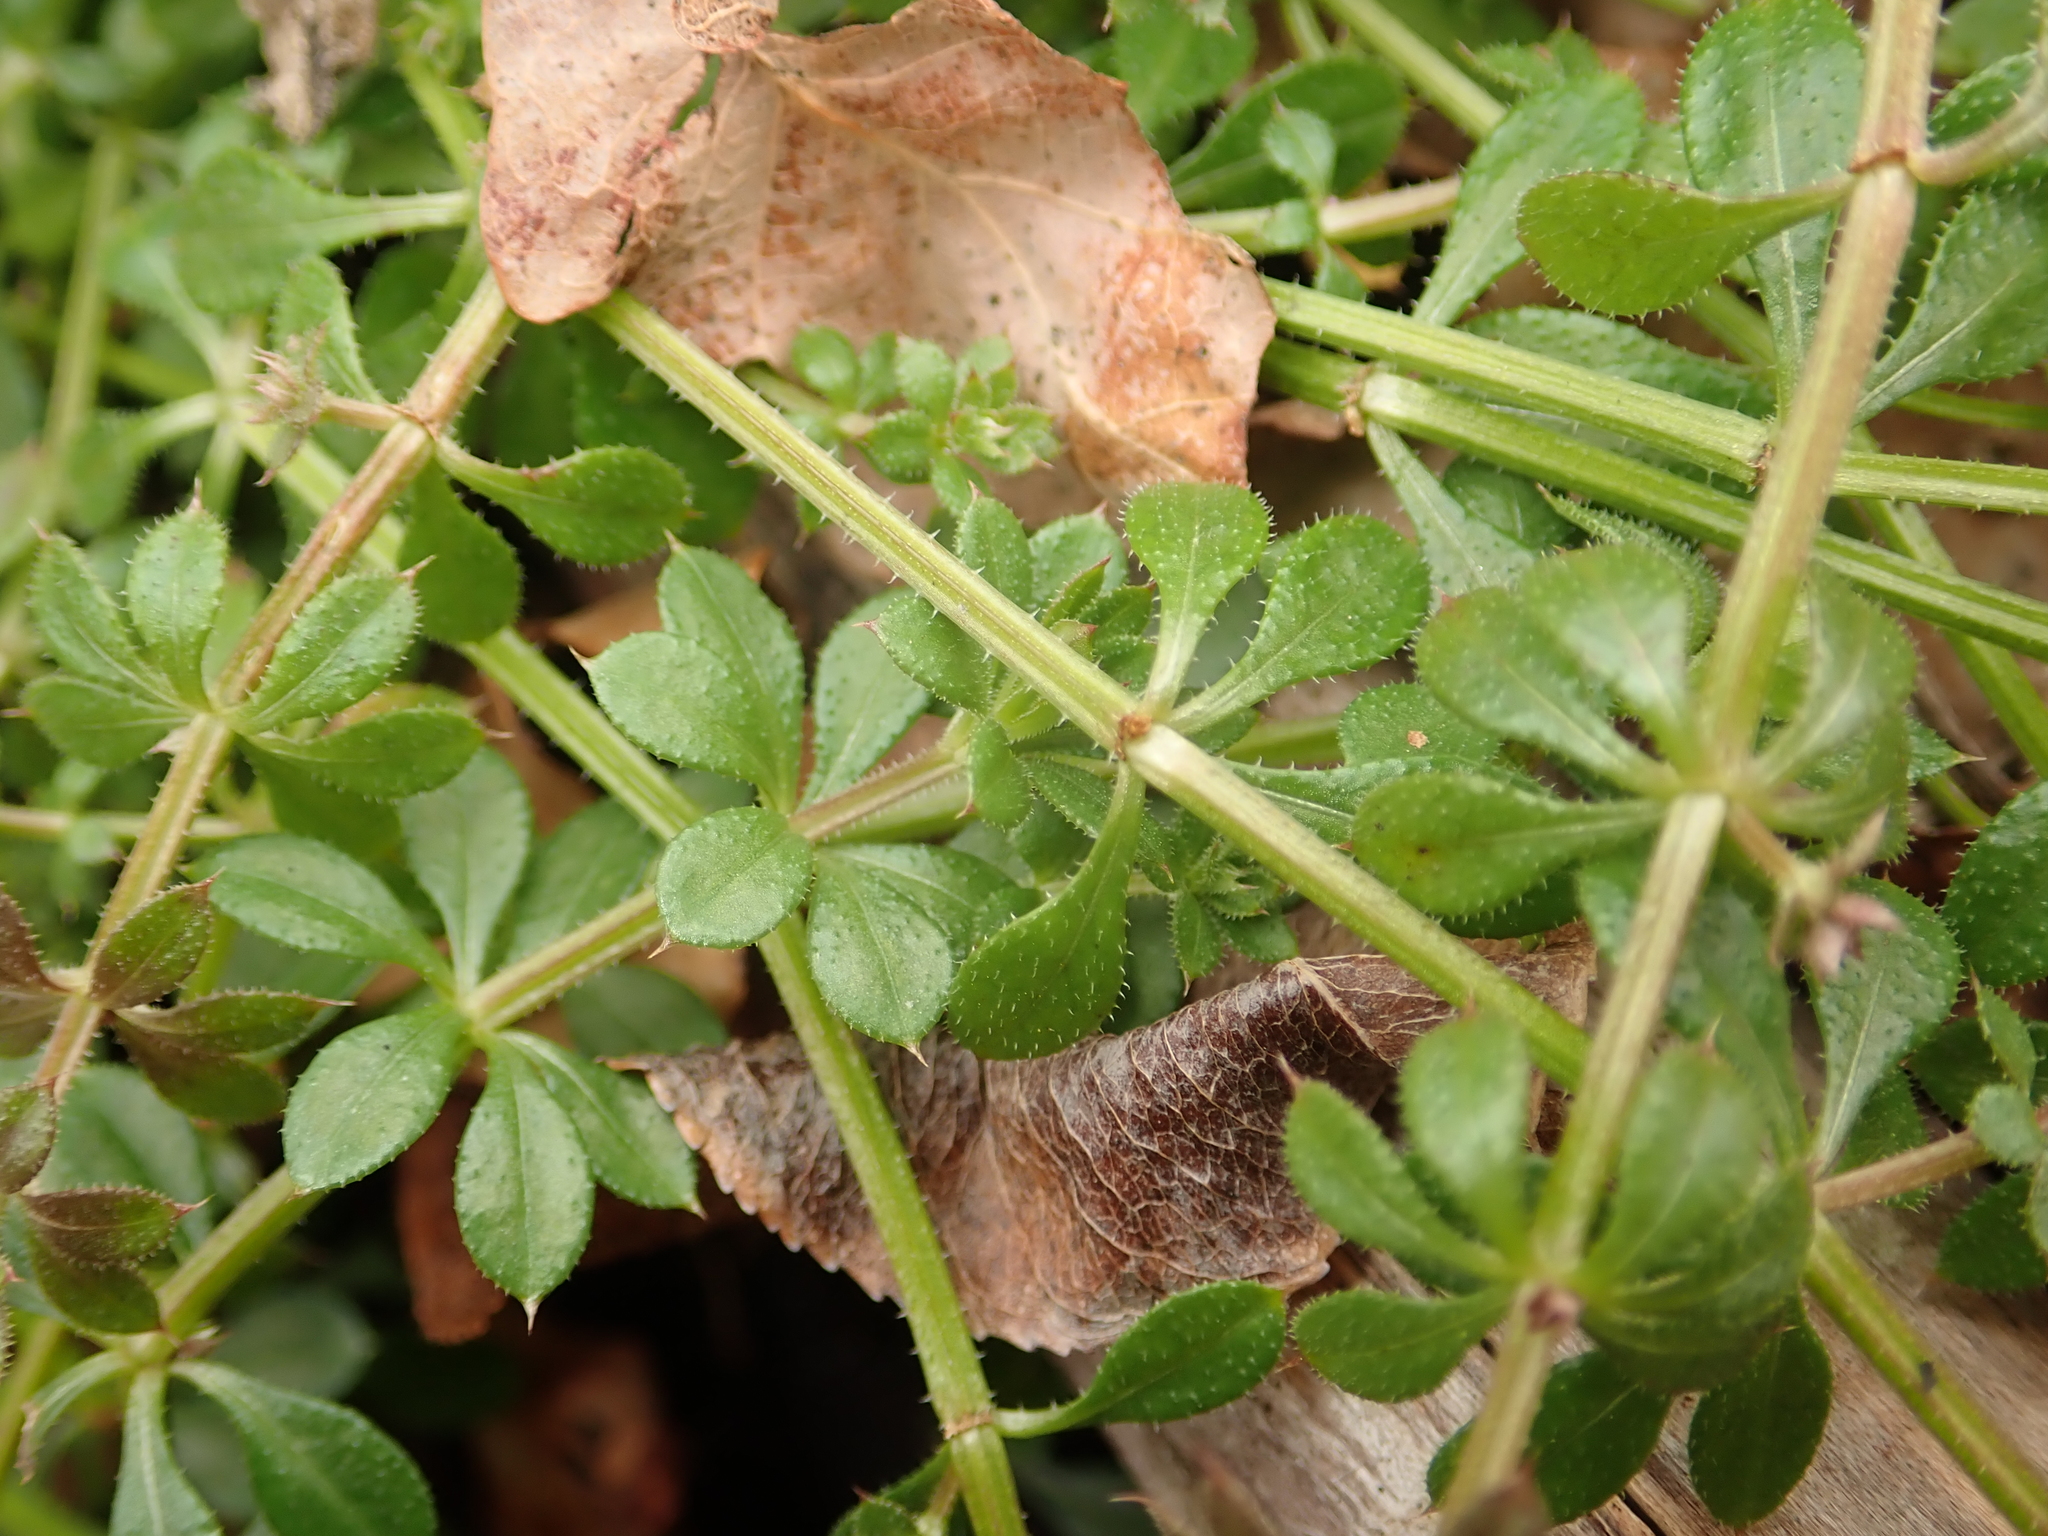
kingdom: Plantae
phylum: Tracheophyta
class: Magnoliopsida
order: Gentianales
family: Rubiaceae
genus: Galium
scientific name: Galium aparine
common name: Cleavers
